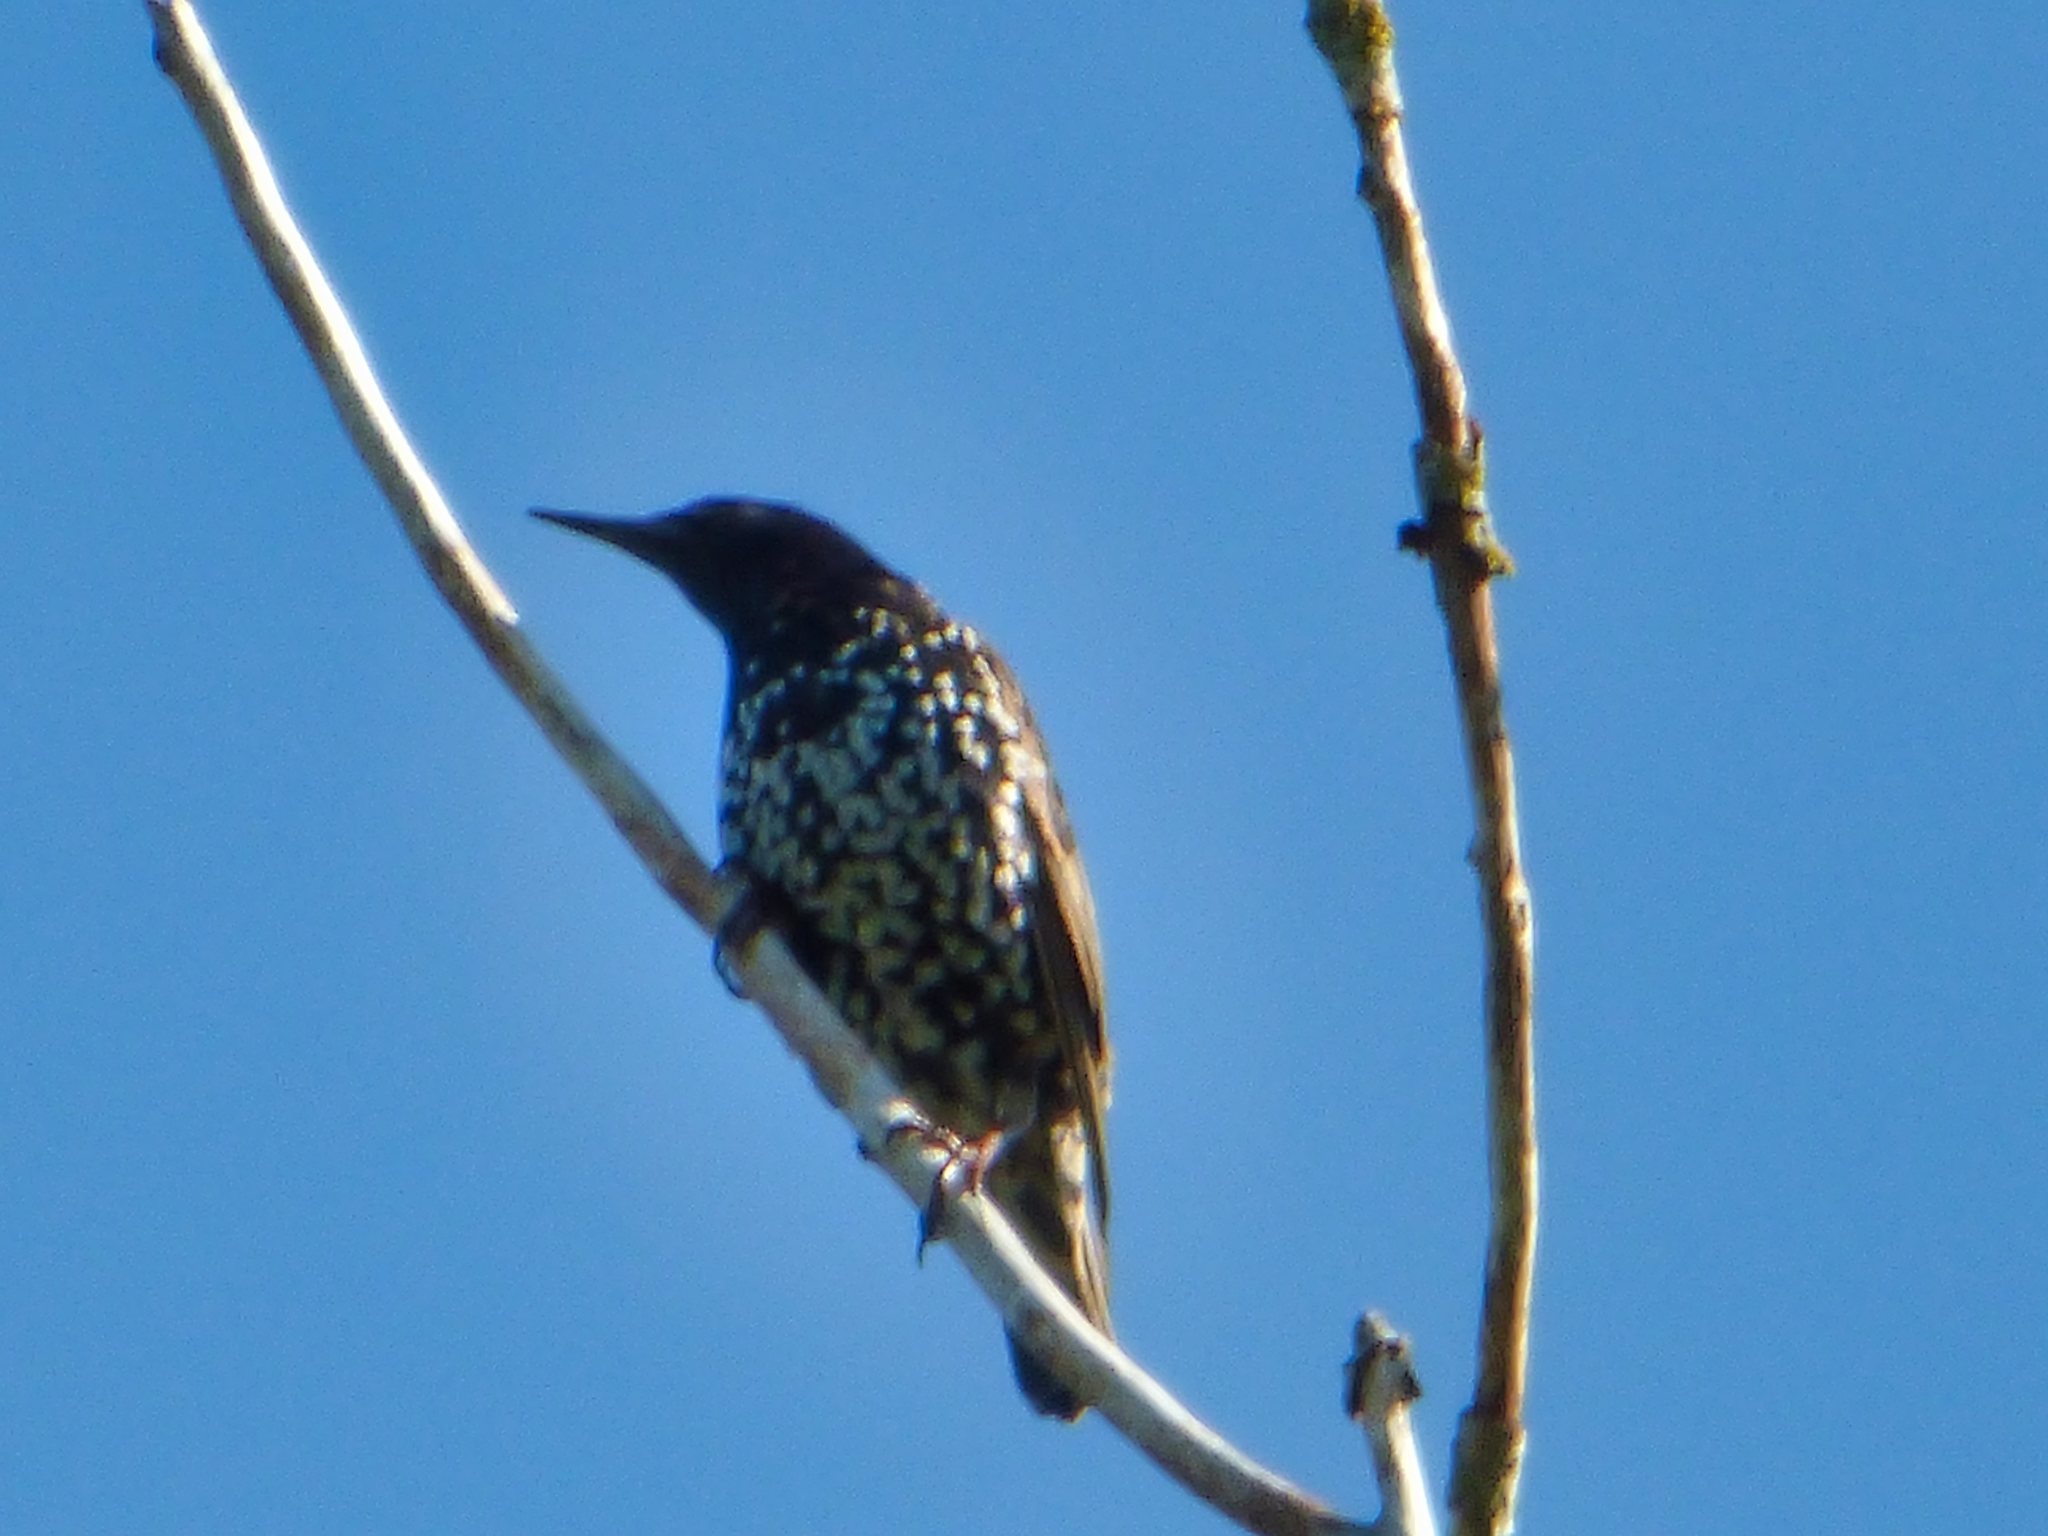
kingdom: Animalia
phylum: Chordata
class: Aves
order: Passeriformes
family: Sturnidae
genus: Sturnus
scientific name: Sturnus vulgaris
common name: Common starling
